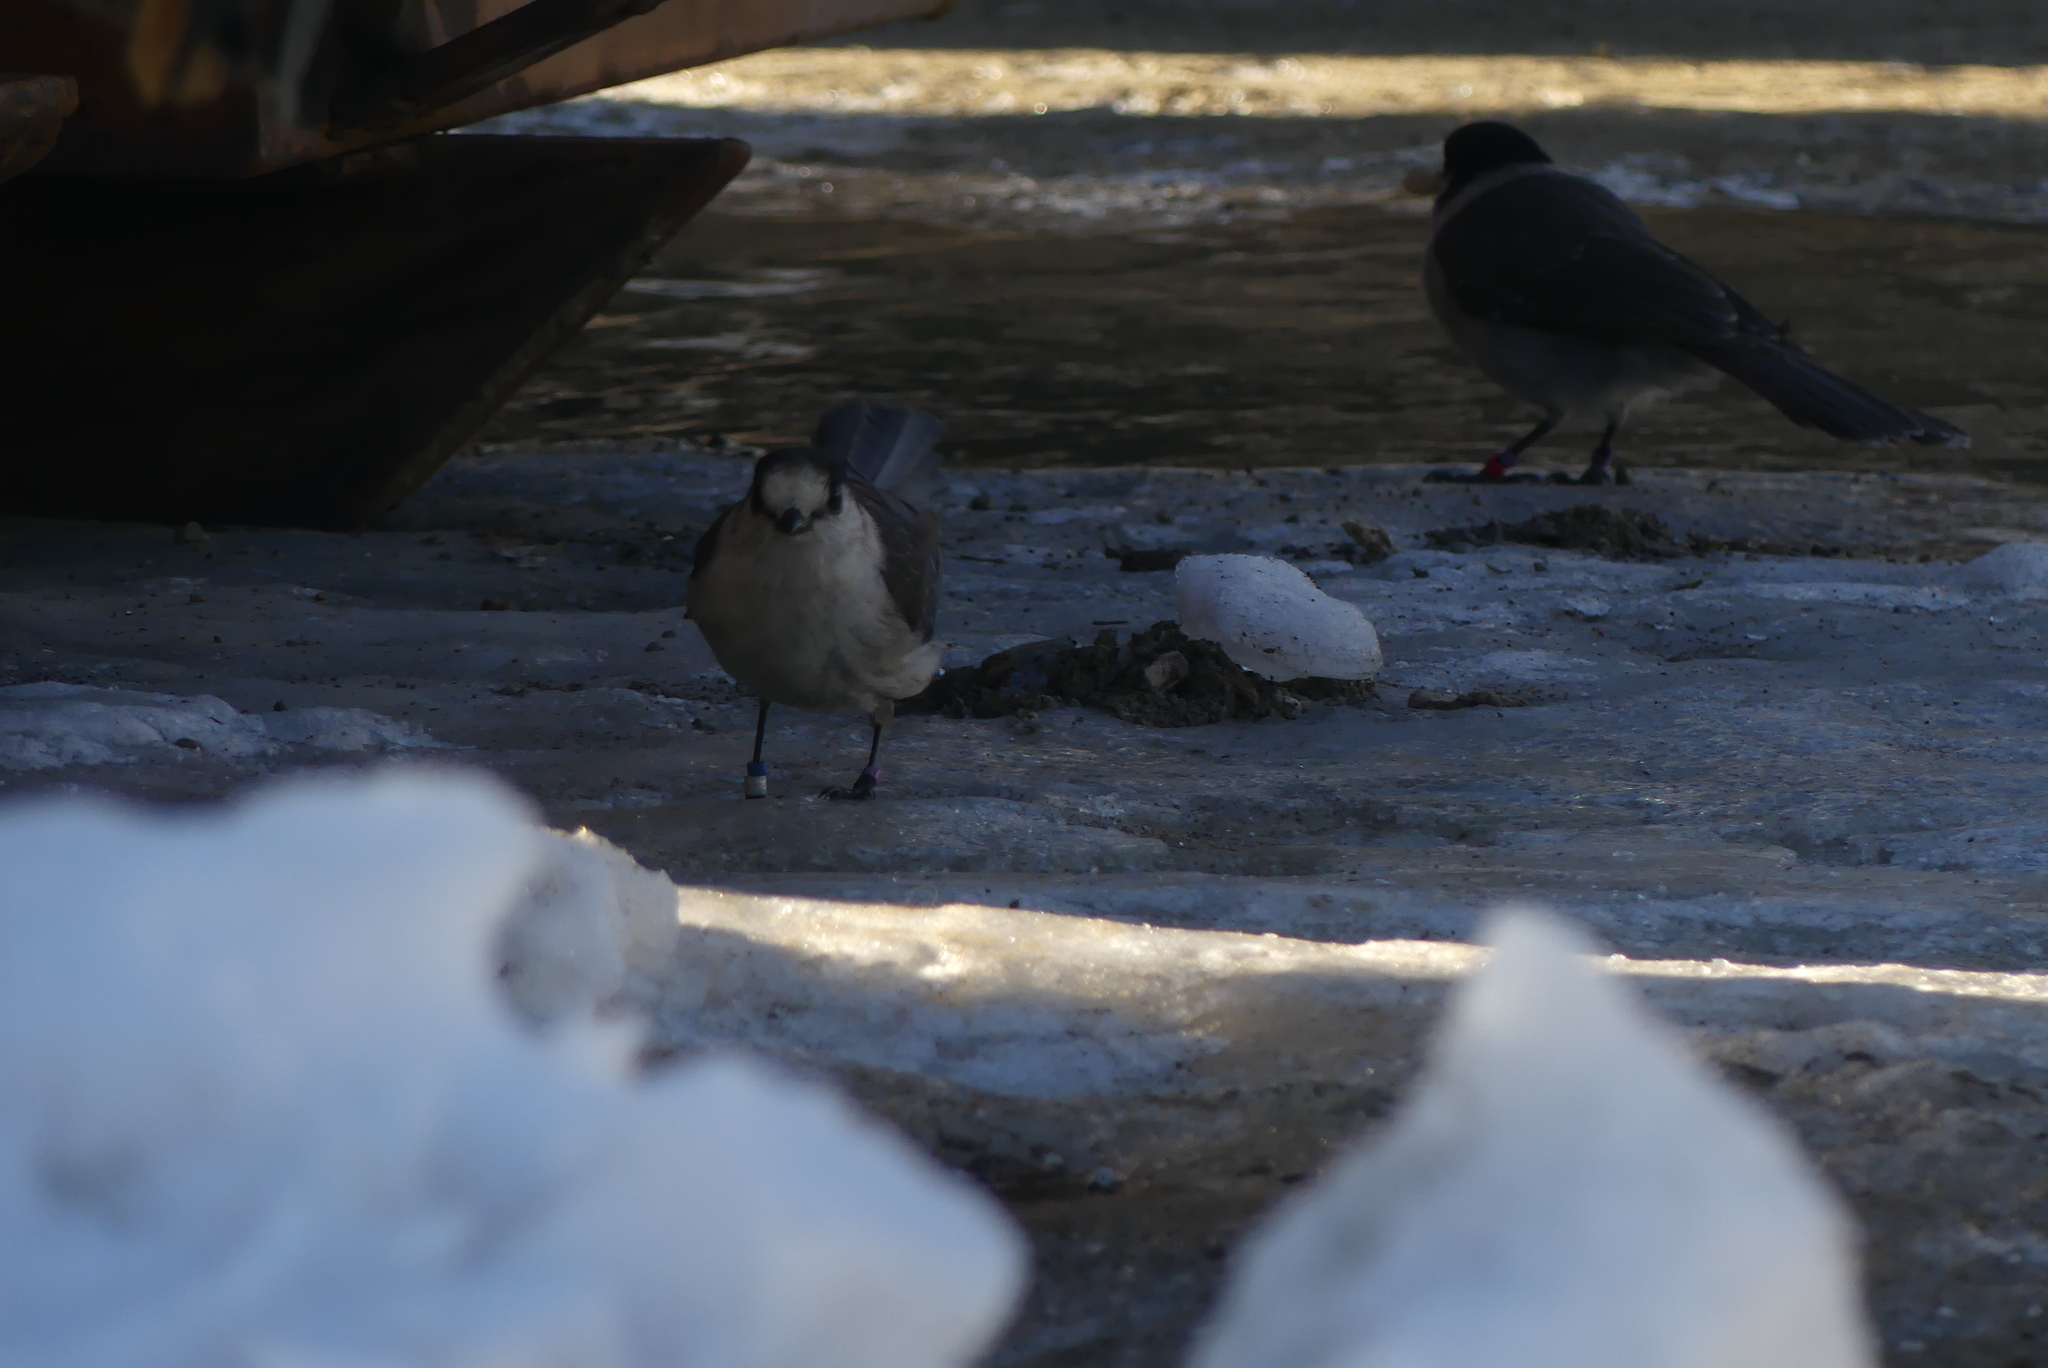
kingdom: Animalia
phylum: Chordata
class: Aves
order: Passeriformes
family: Corvidae
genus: Perisoreus
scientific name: Perisoreus canadensis
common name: Gray jay
